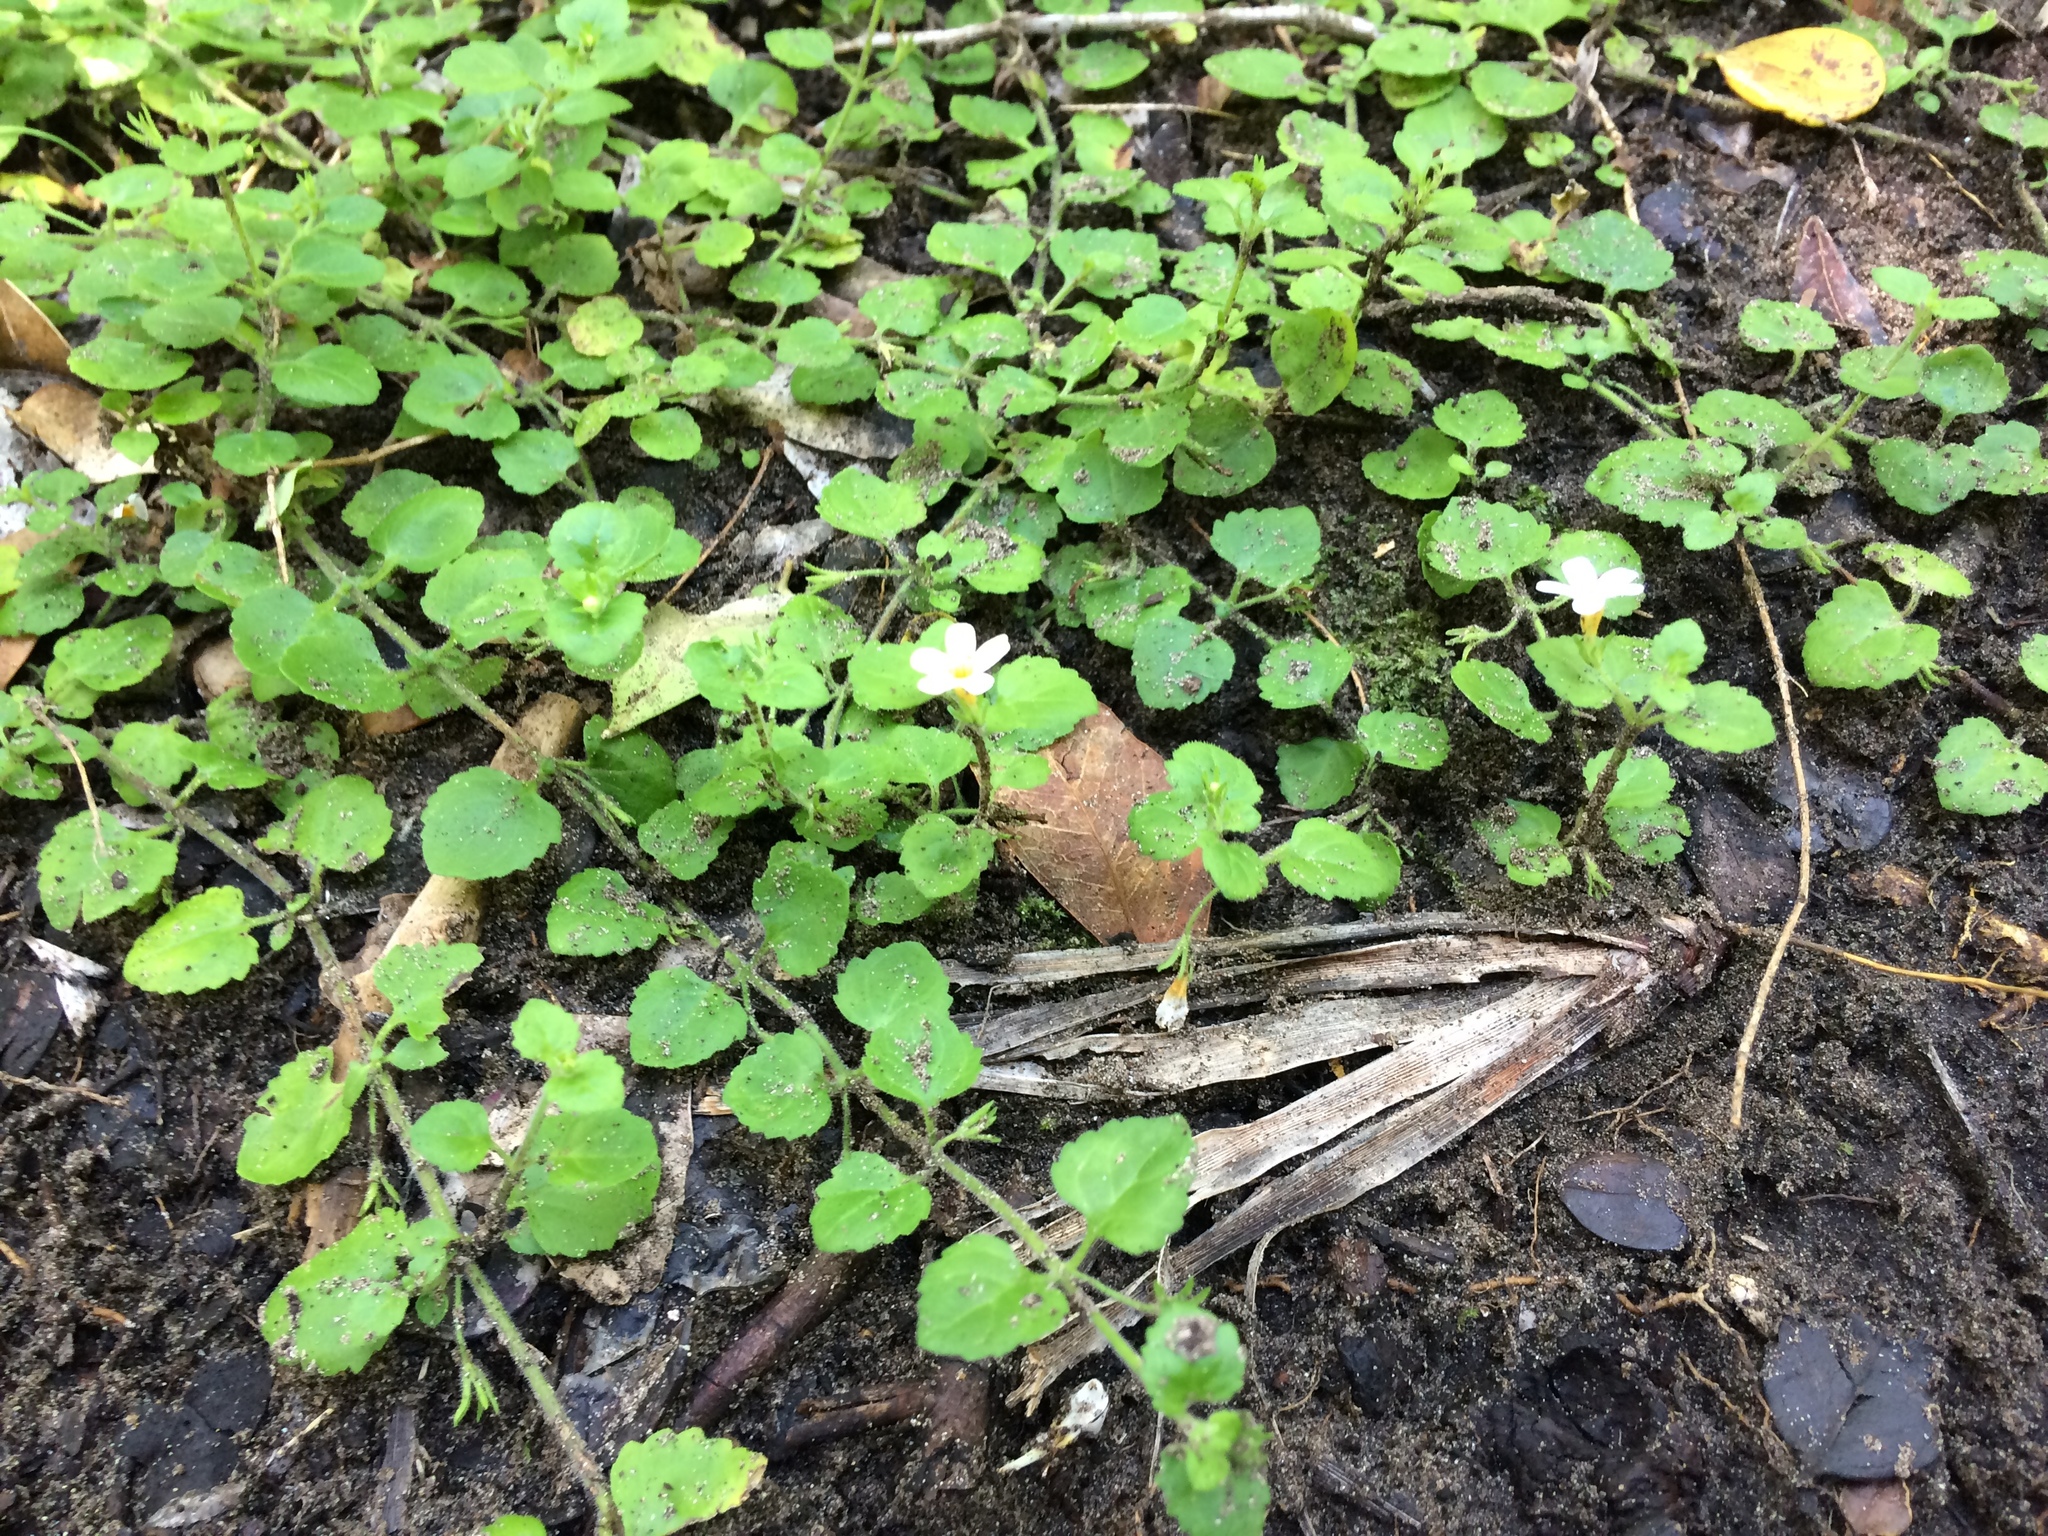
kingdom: Plantae
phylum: Tracheophyta
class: Magnoliopsida
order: Lamiales
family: Scrophulariaceae
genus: Chaenostoma
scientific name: Chaenostoma cordatum
